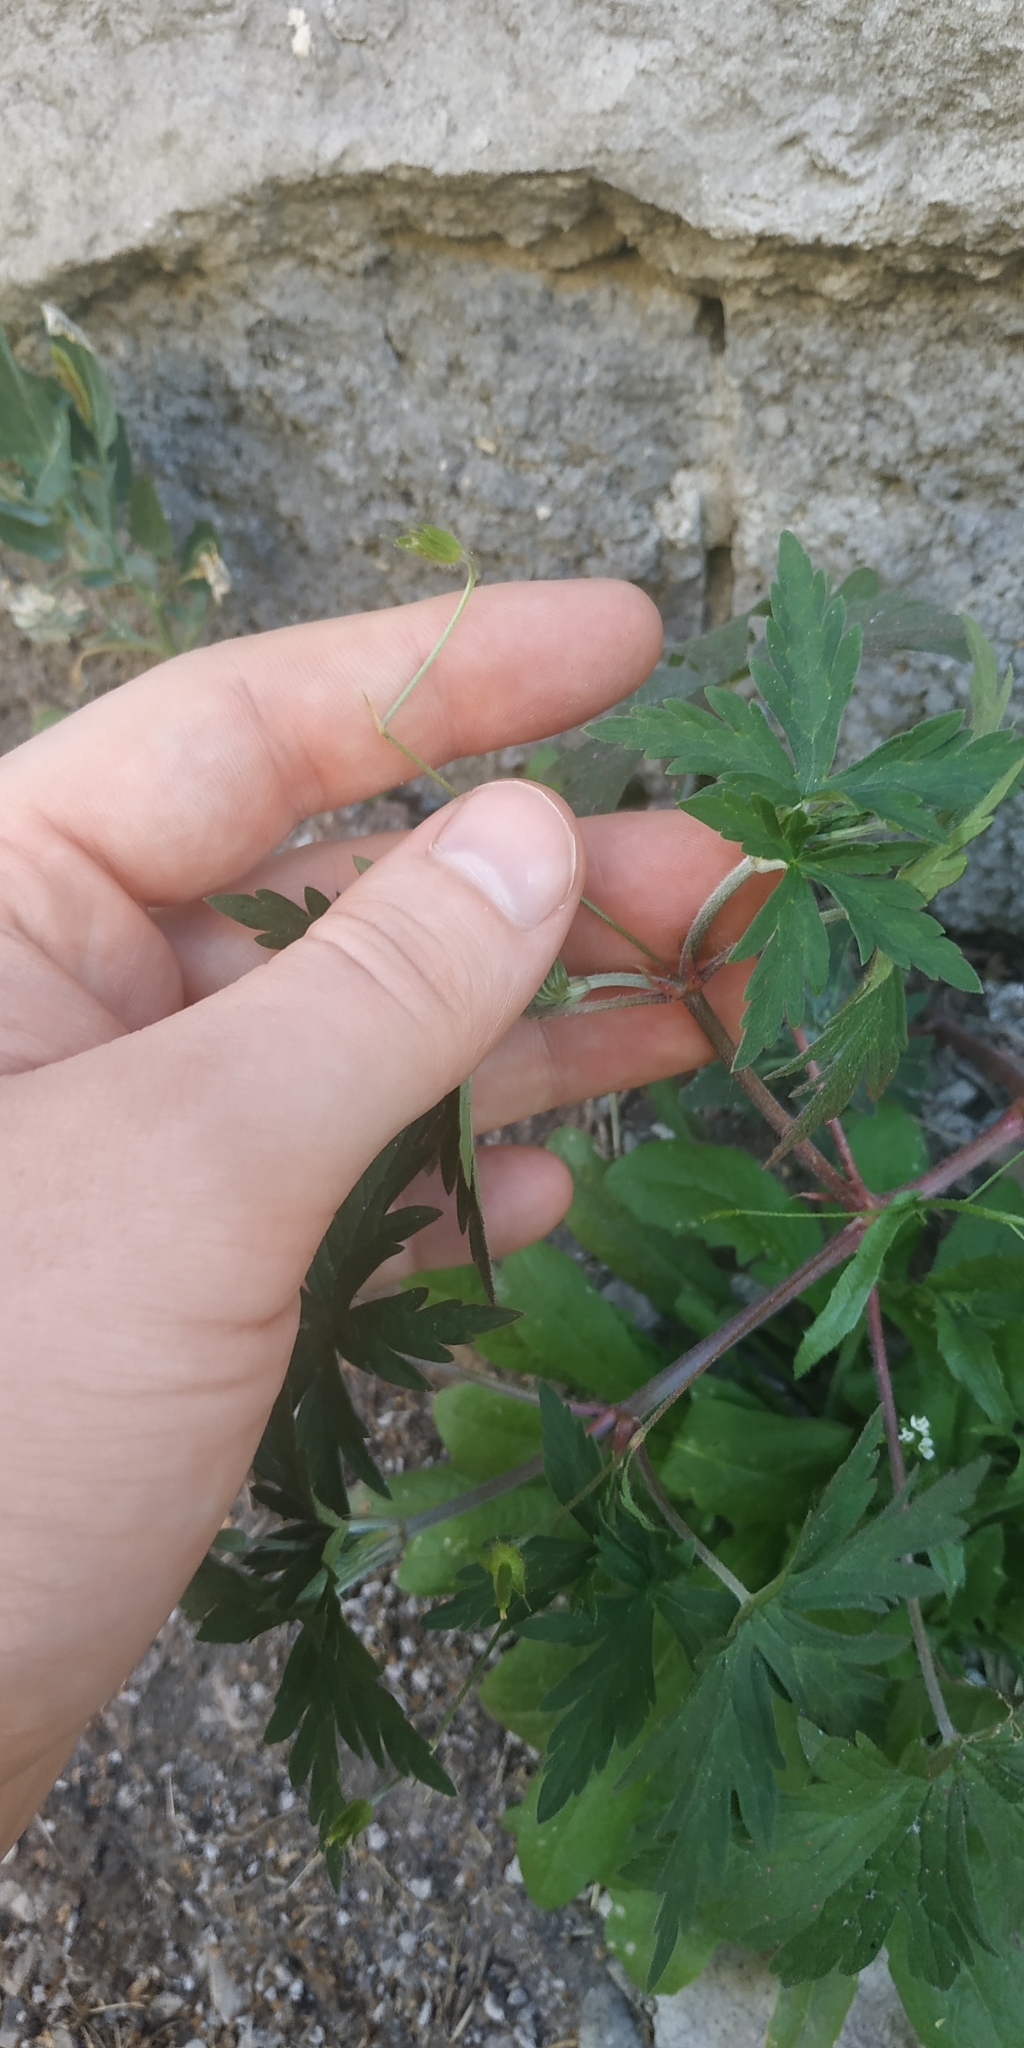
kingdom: Plantae
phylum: Tracheophyta
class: Magnoliopsida
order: Geraniales
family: Geraniaceae
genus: Geranium
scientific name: Geranium sibiricum
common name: Siberian crane's-bill
